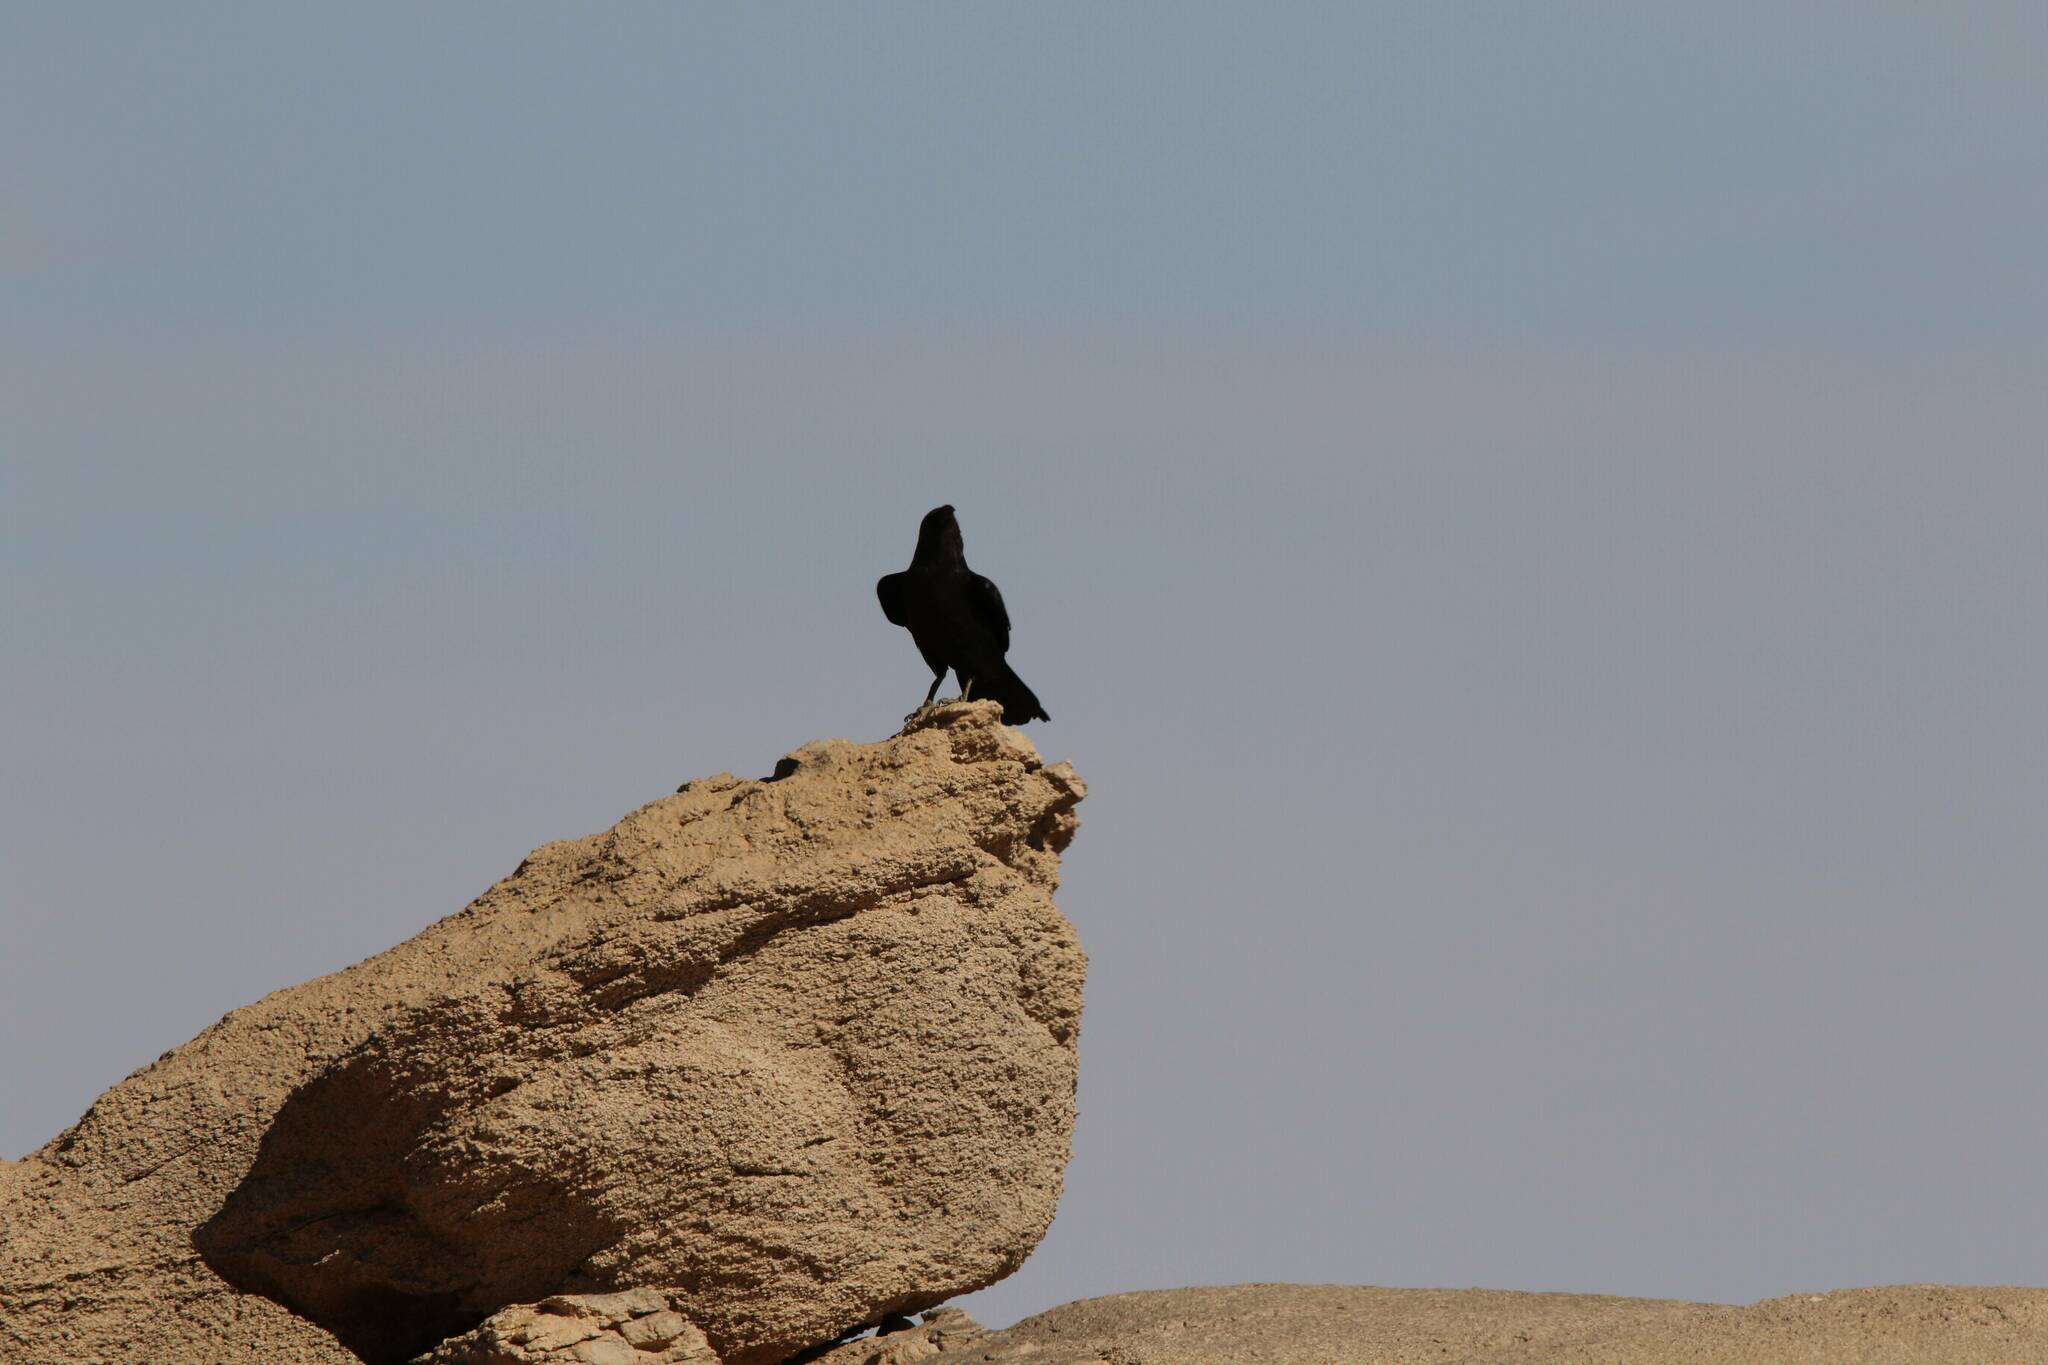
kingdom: Animalia
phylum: Chordata
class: Aves
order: Passeriformes
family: Corvidae
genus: Corvus
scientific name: Corvus ruficollis
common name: Brown-necked raven
